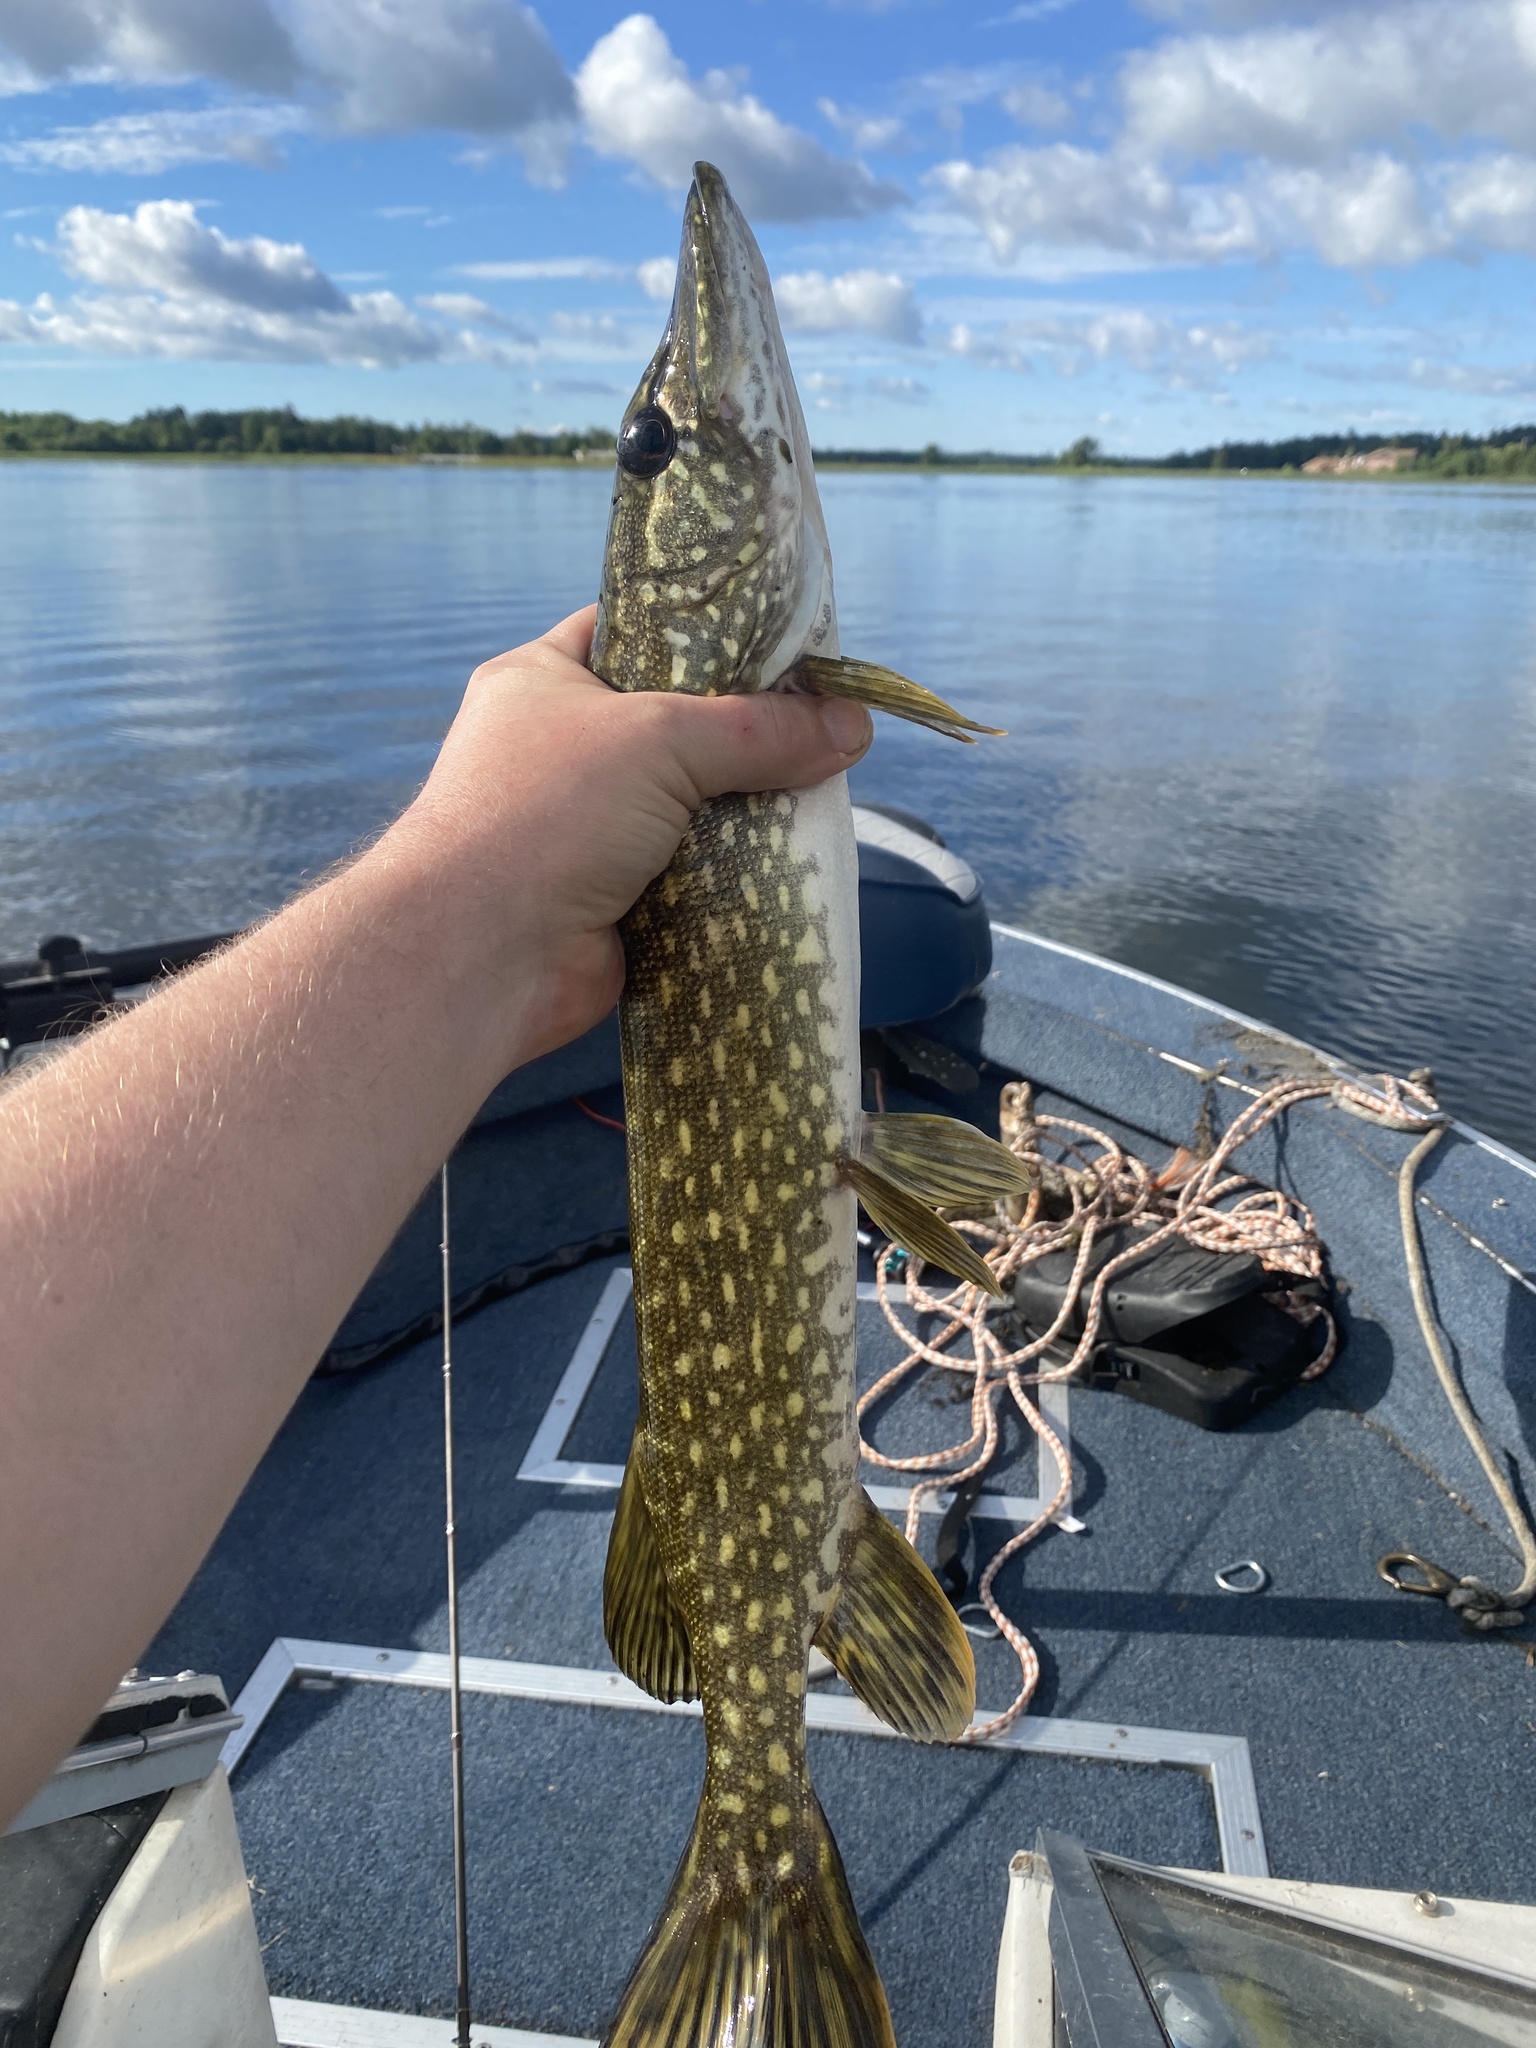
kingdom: Animalia
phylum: Chordata
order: Esociformes
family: Esocidae
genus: Esox
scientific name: Esox lucius
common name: Northern pike
